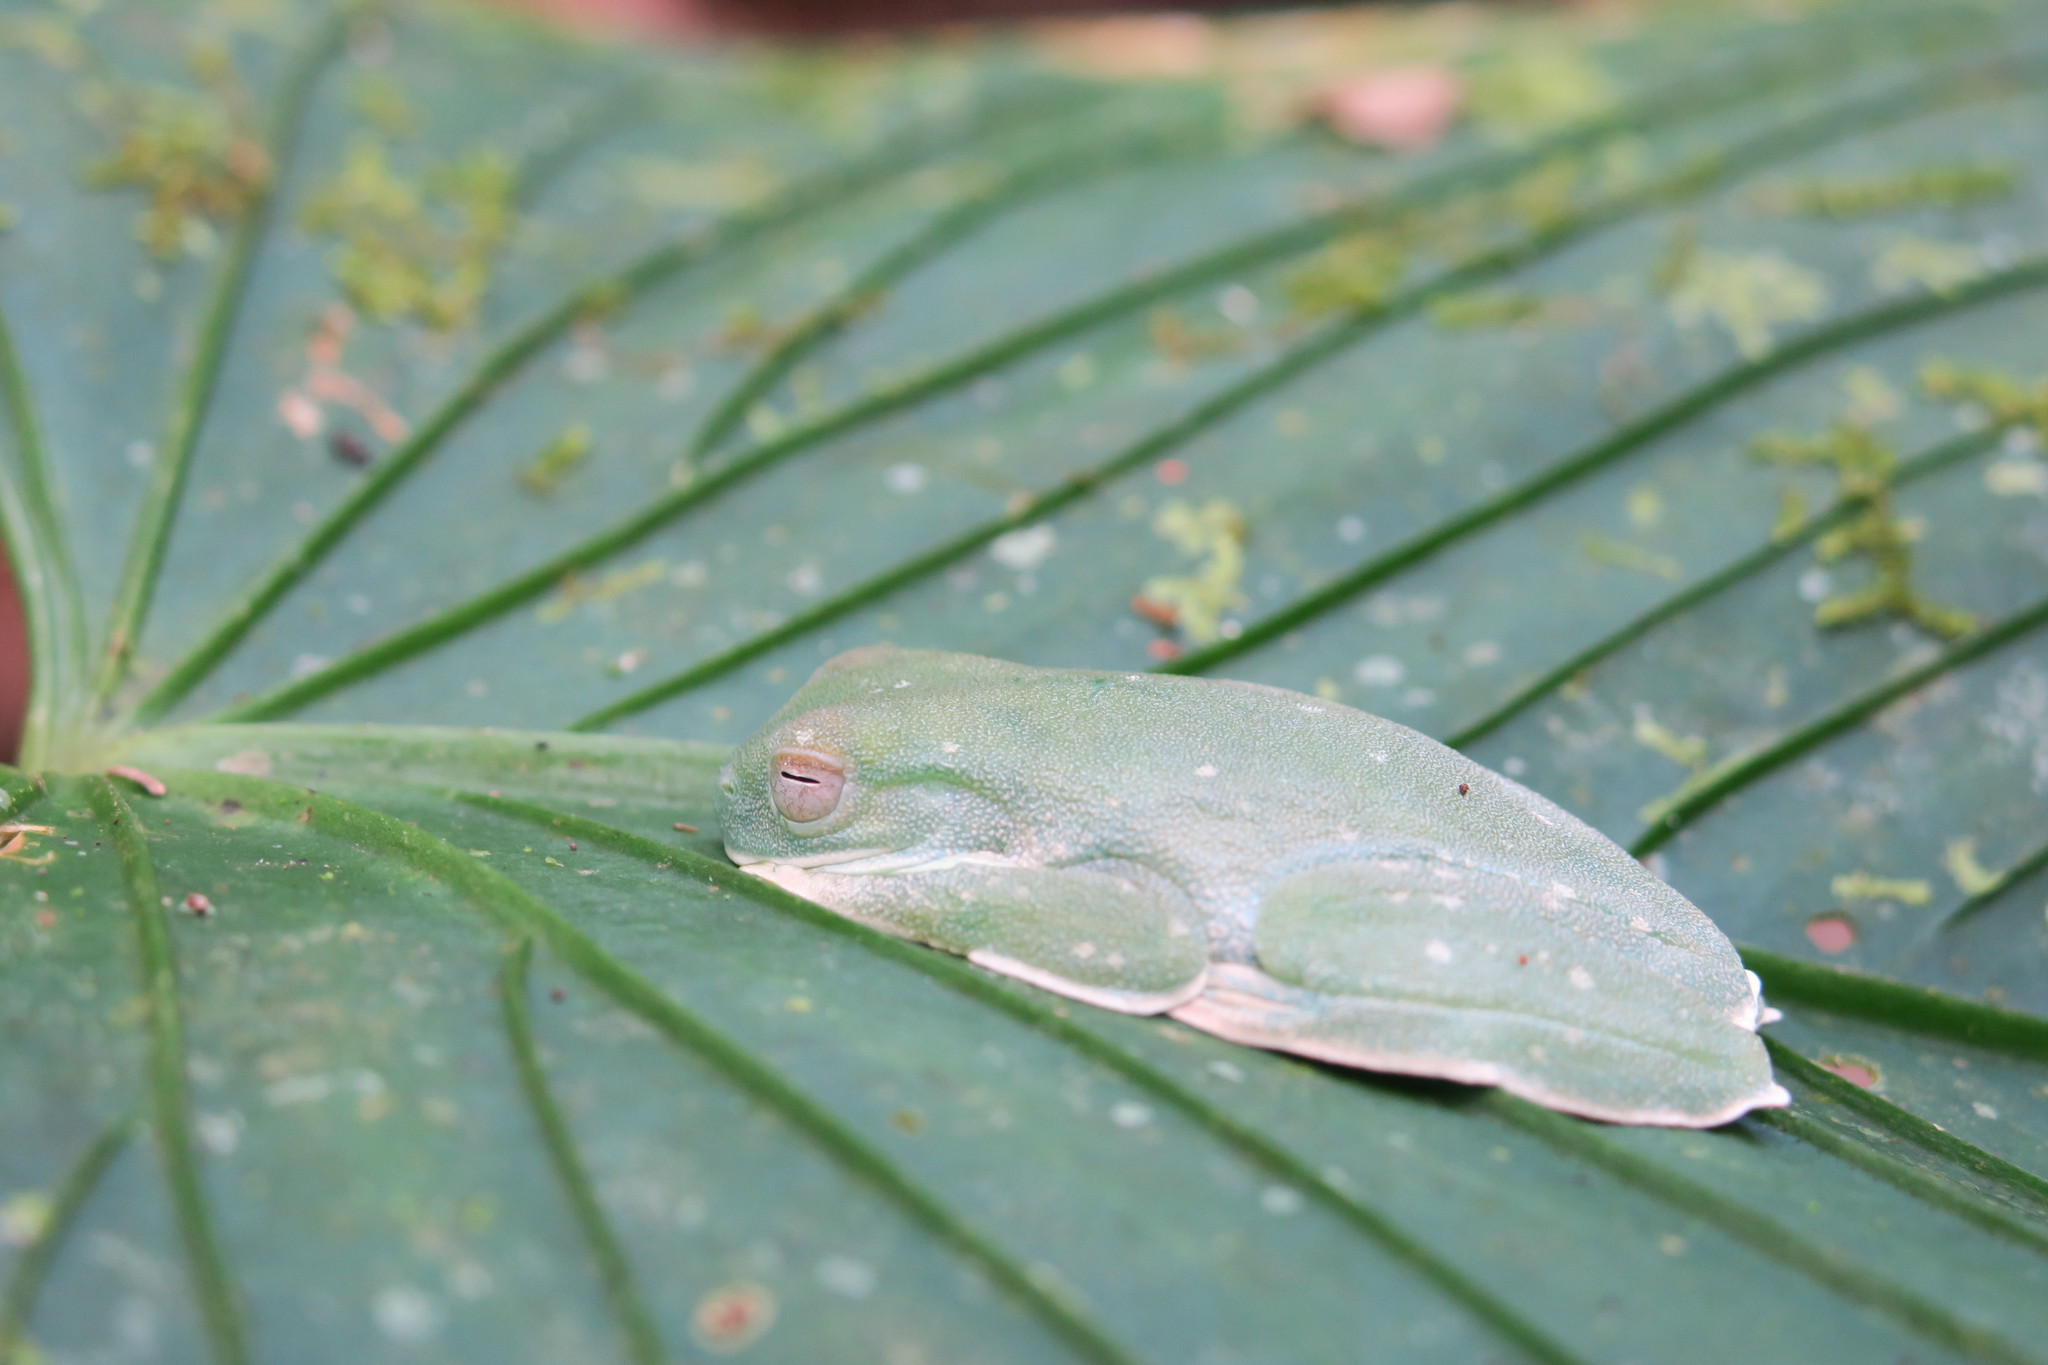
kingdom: Animalia
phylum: Chordata
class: Amphibia
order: Anura
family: Hylidae
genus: Hyloscirtus
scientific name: Hyloscirtus palmeri
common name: Palmer's treefrog
